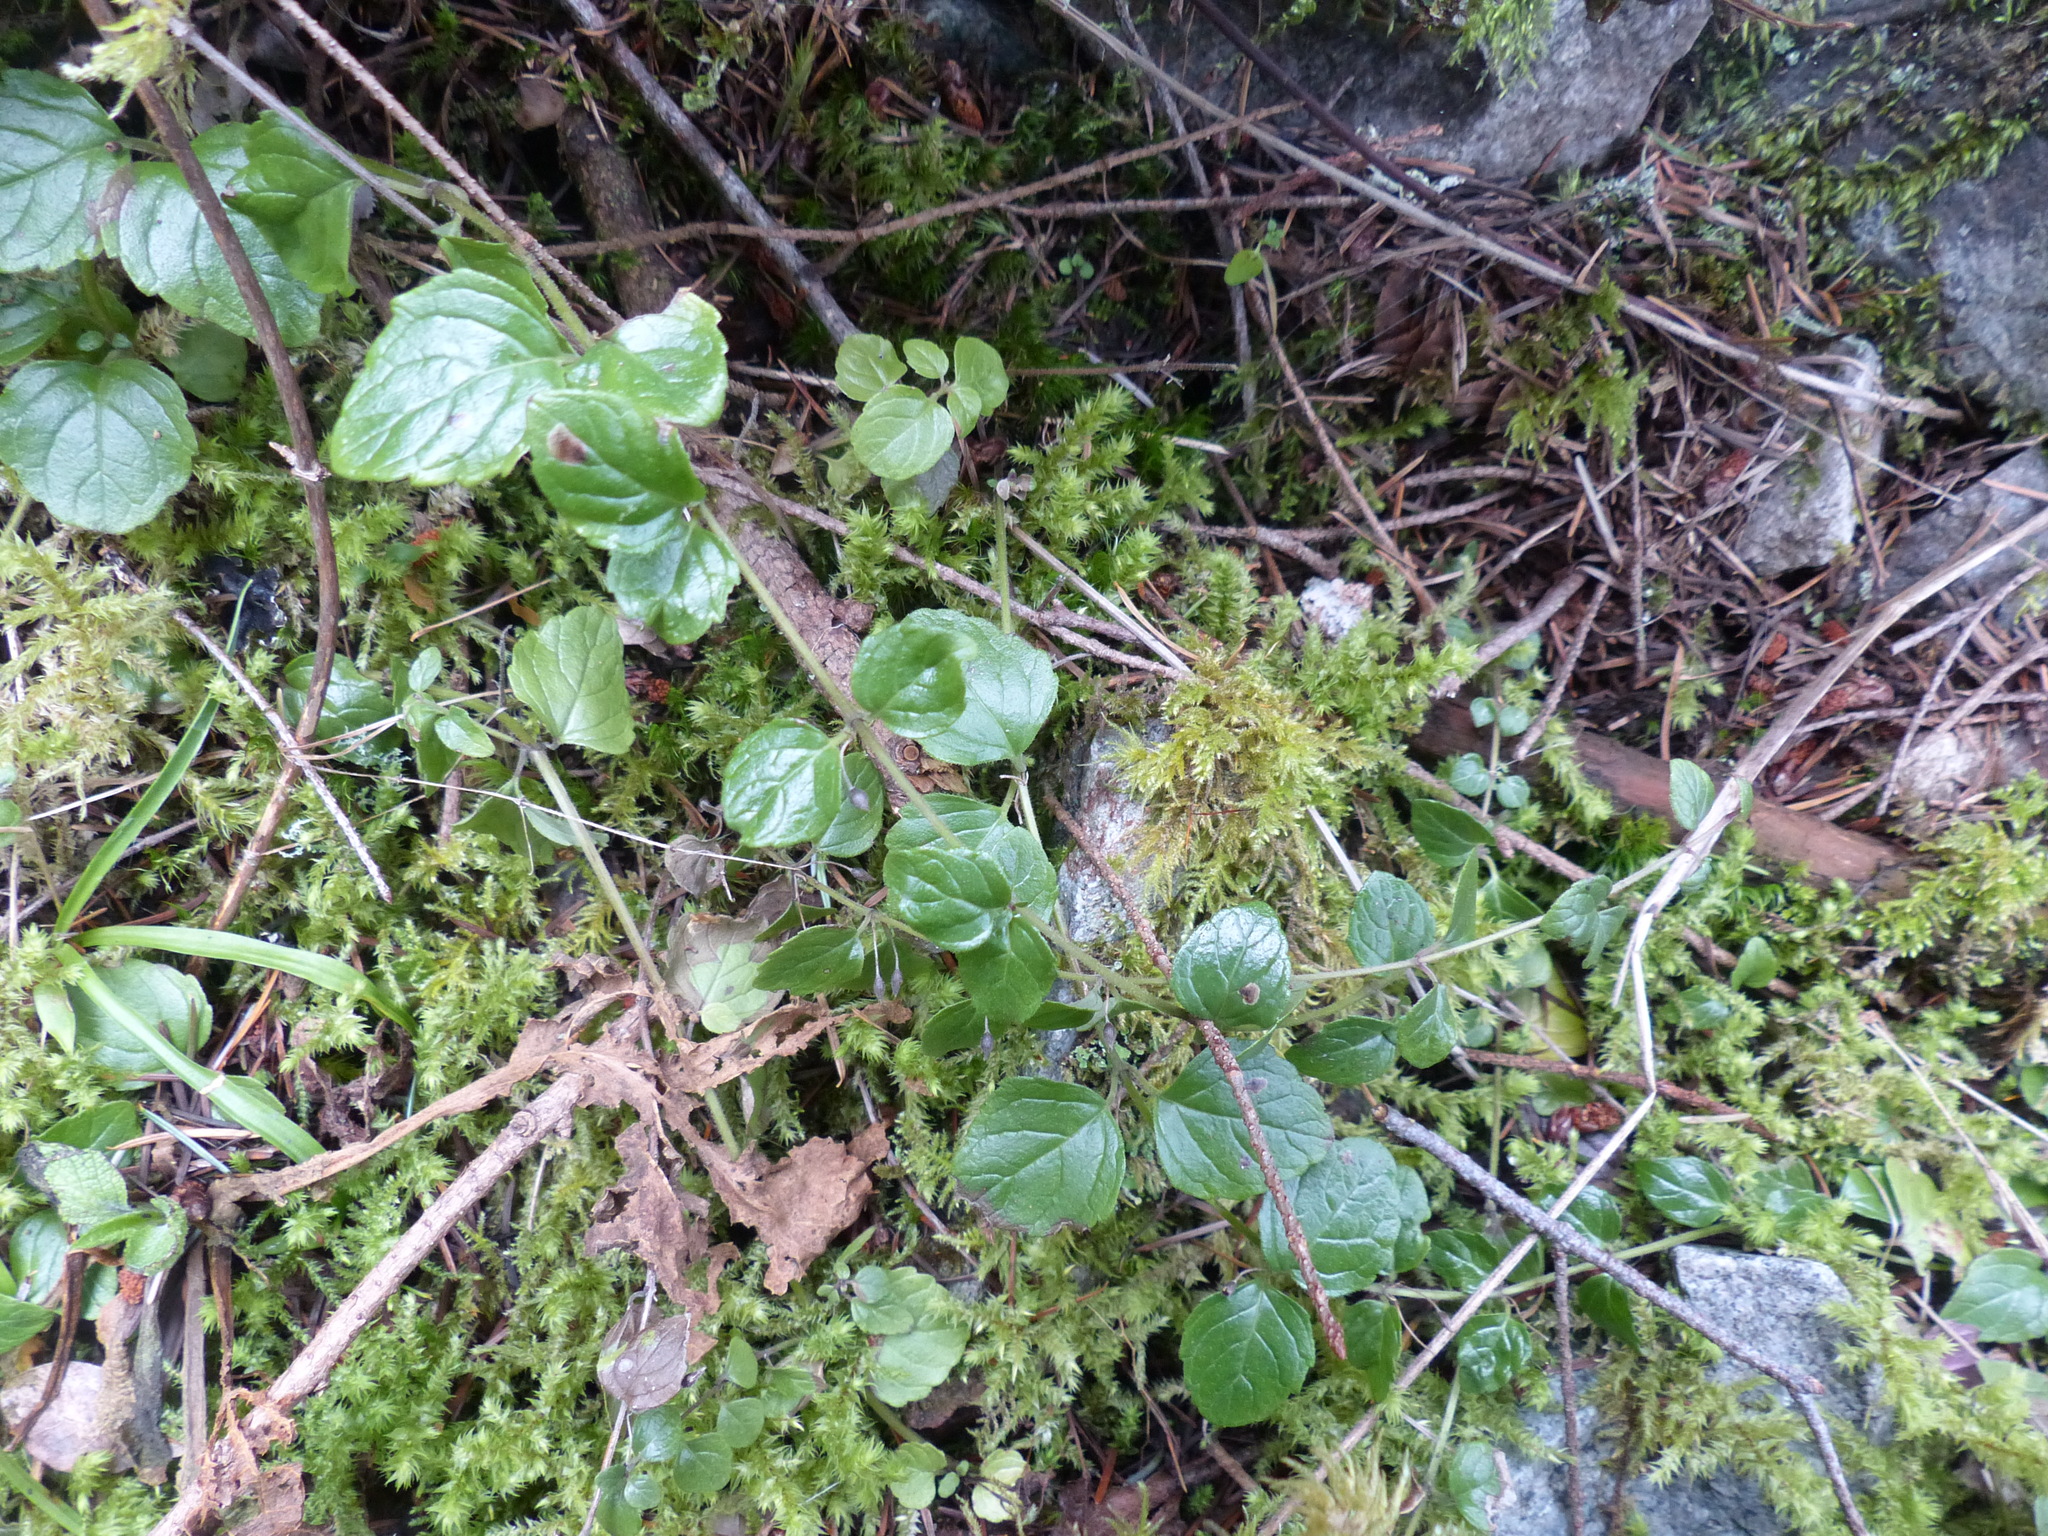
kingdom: Plantae
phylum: Tracheophyta
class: Magnoliopsida
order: Lamiales
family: Lamiaceae
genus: Micromeria
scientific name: Micromeria douglasii
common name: Yerba buena
